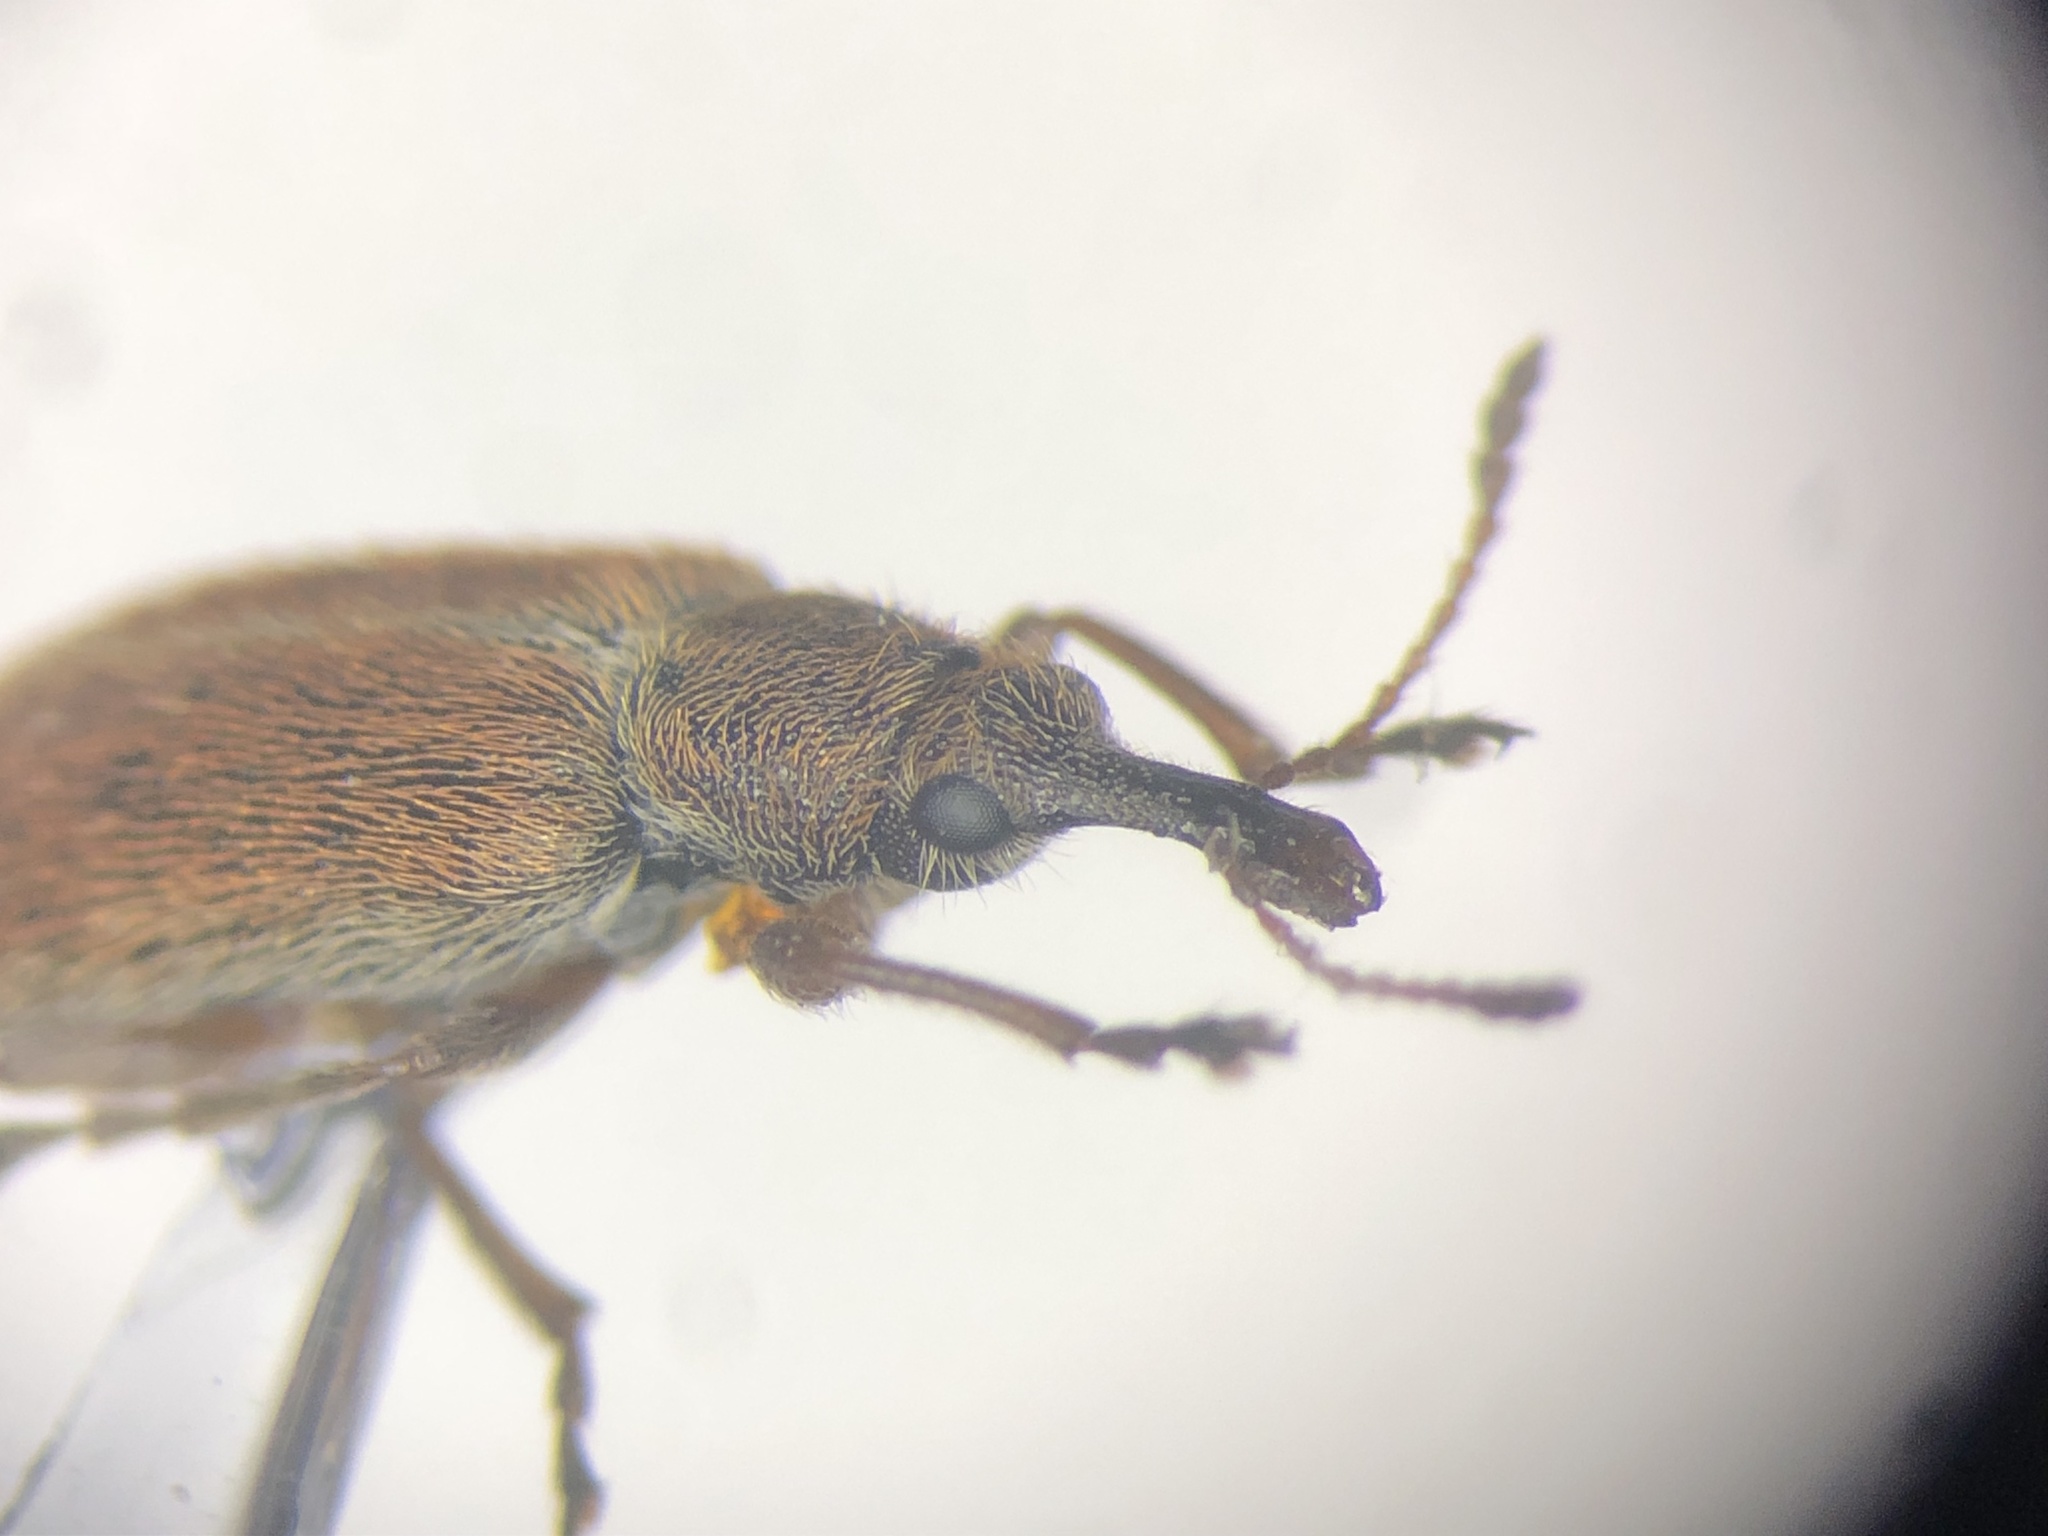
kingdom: Animalia
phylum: Arthropoda
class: Insecta
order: Coleoptera
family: Nemonychidae
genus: Cimberis
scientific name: Cimberis elongata
